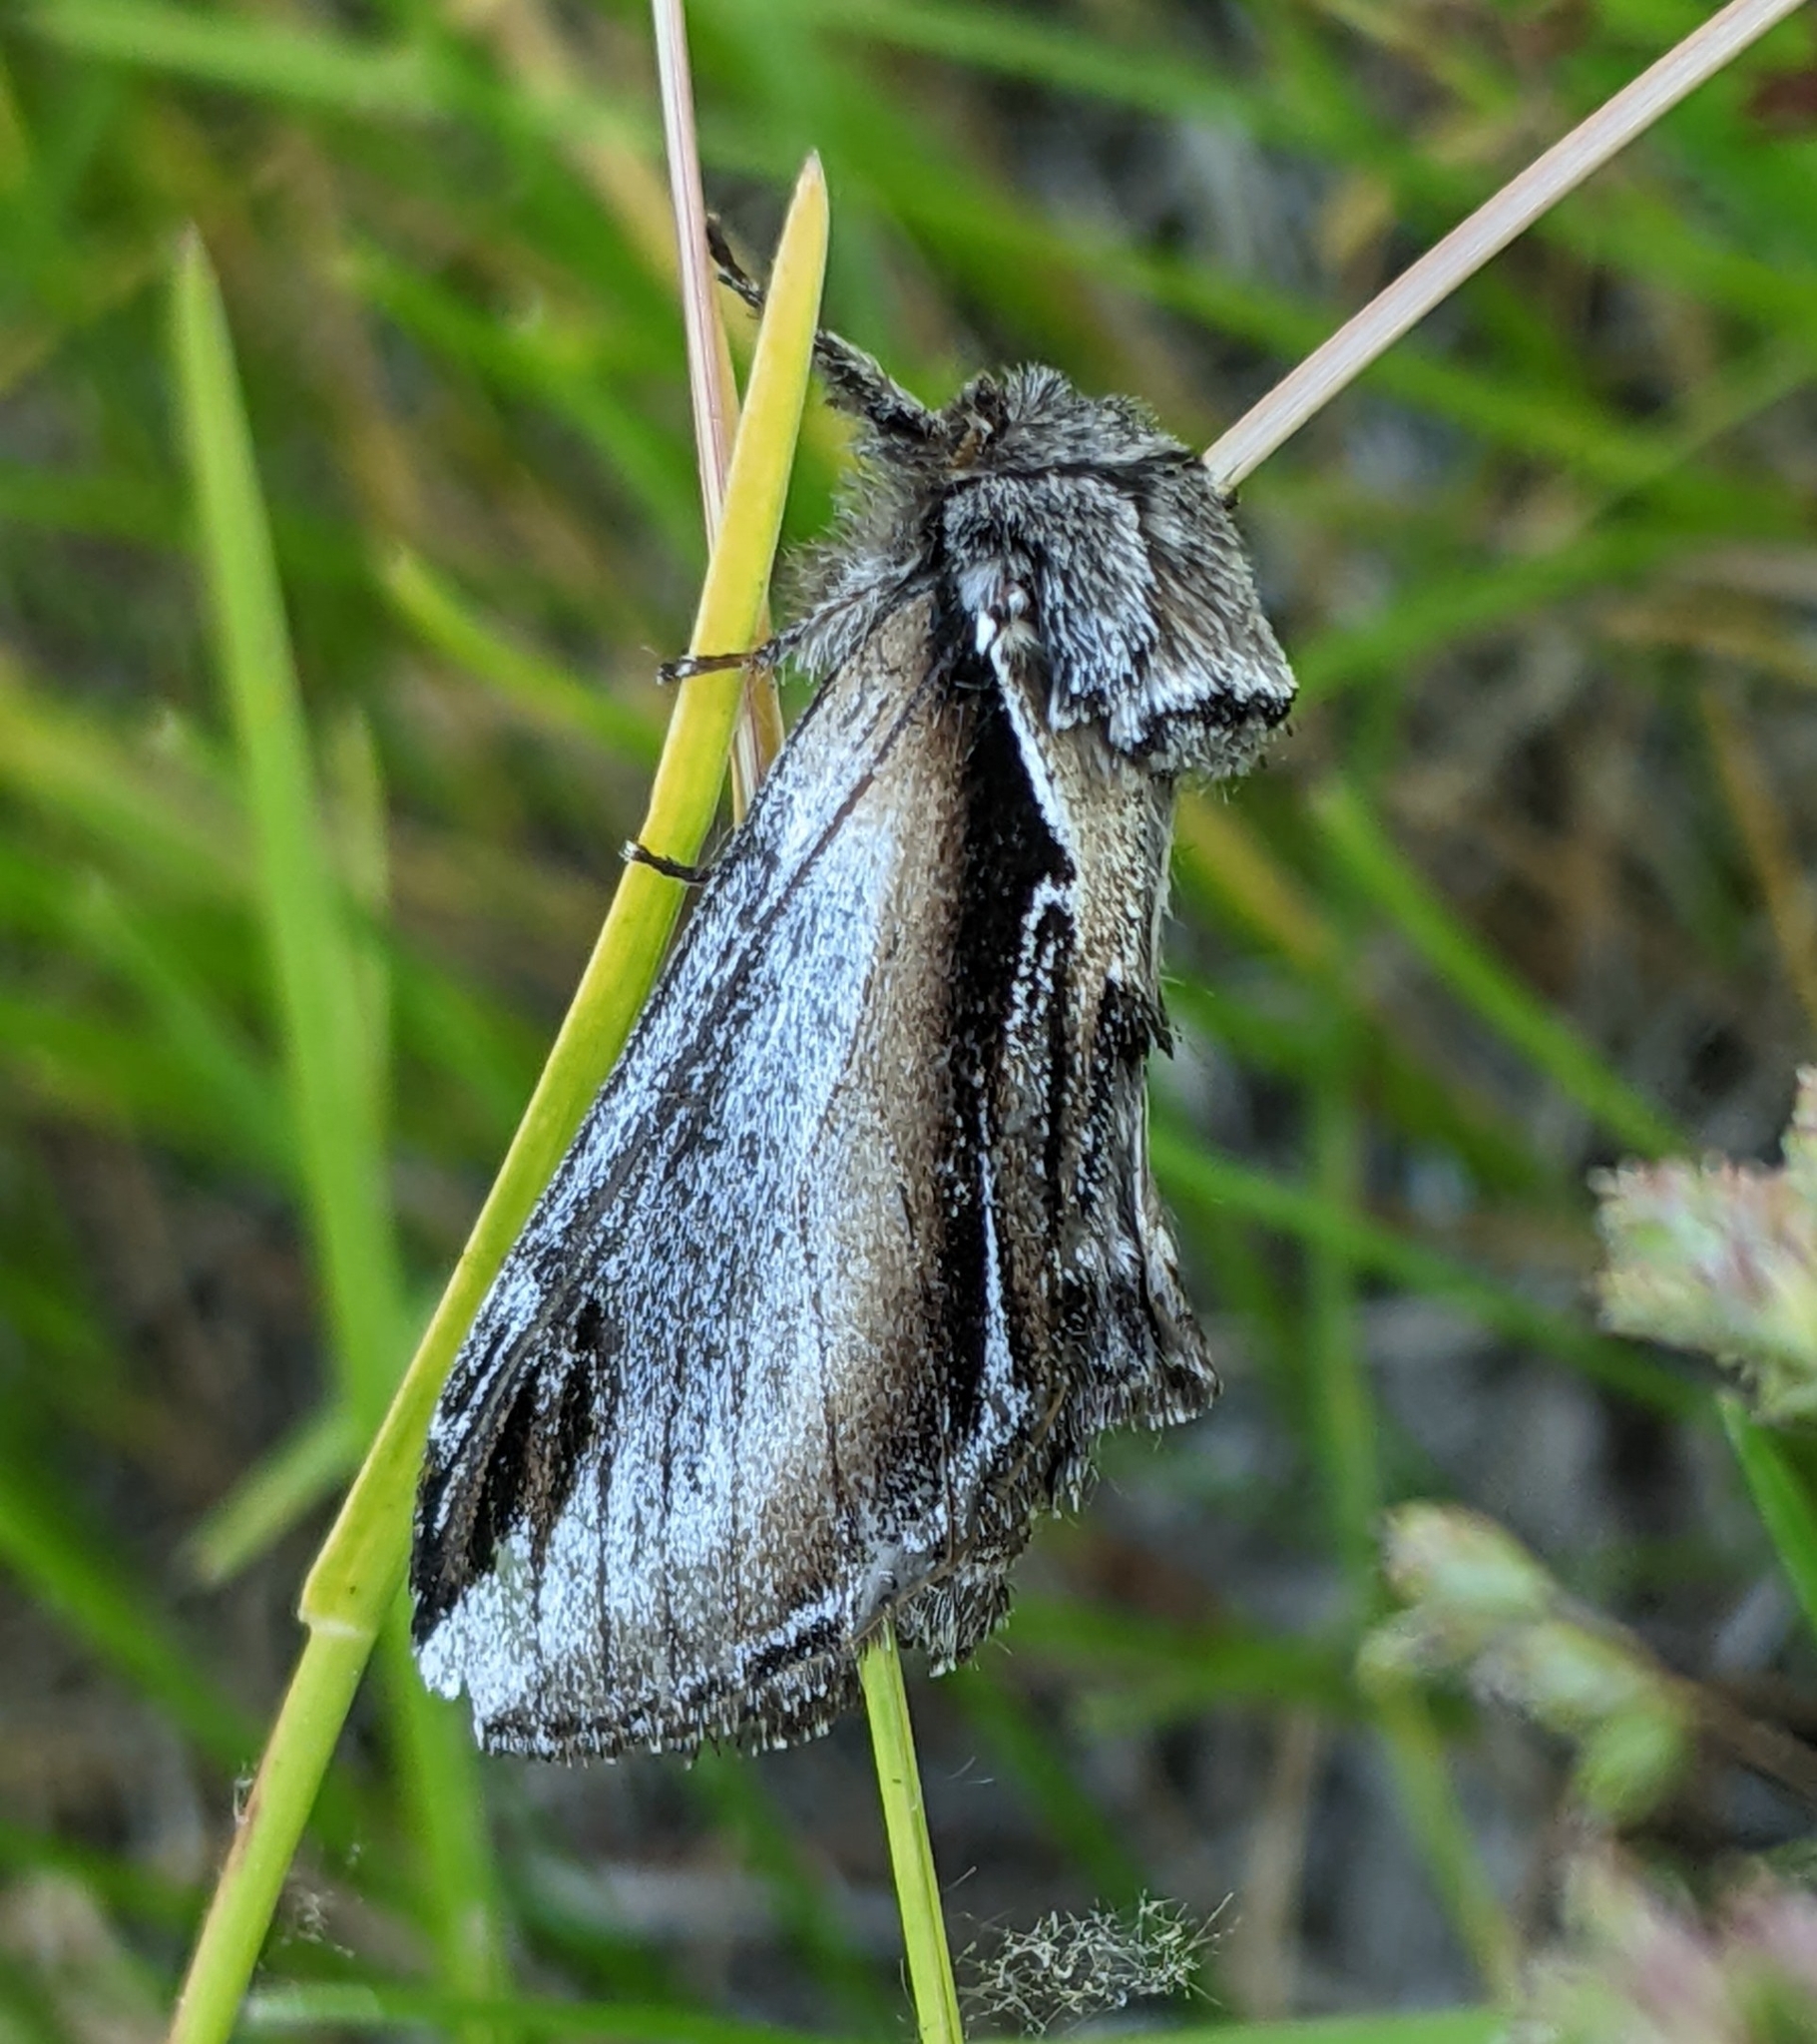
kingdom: Animalia
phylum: Arthropoda
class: Insecta
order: Lepidoptera
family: Notodontidae
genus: Pheosia
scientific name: Pheosia rimosa
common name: Black-rimmed prominent
